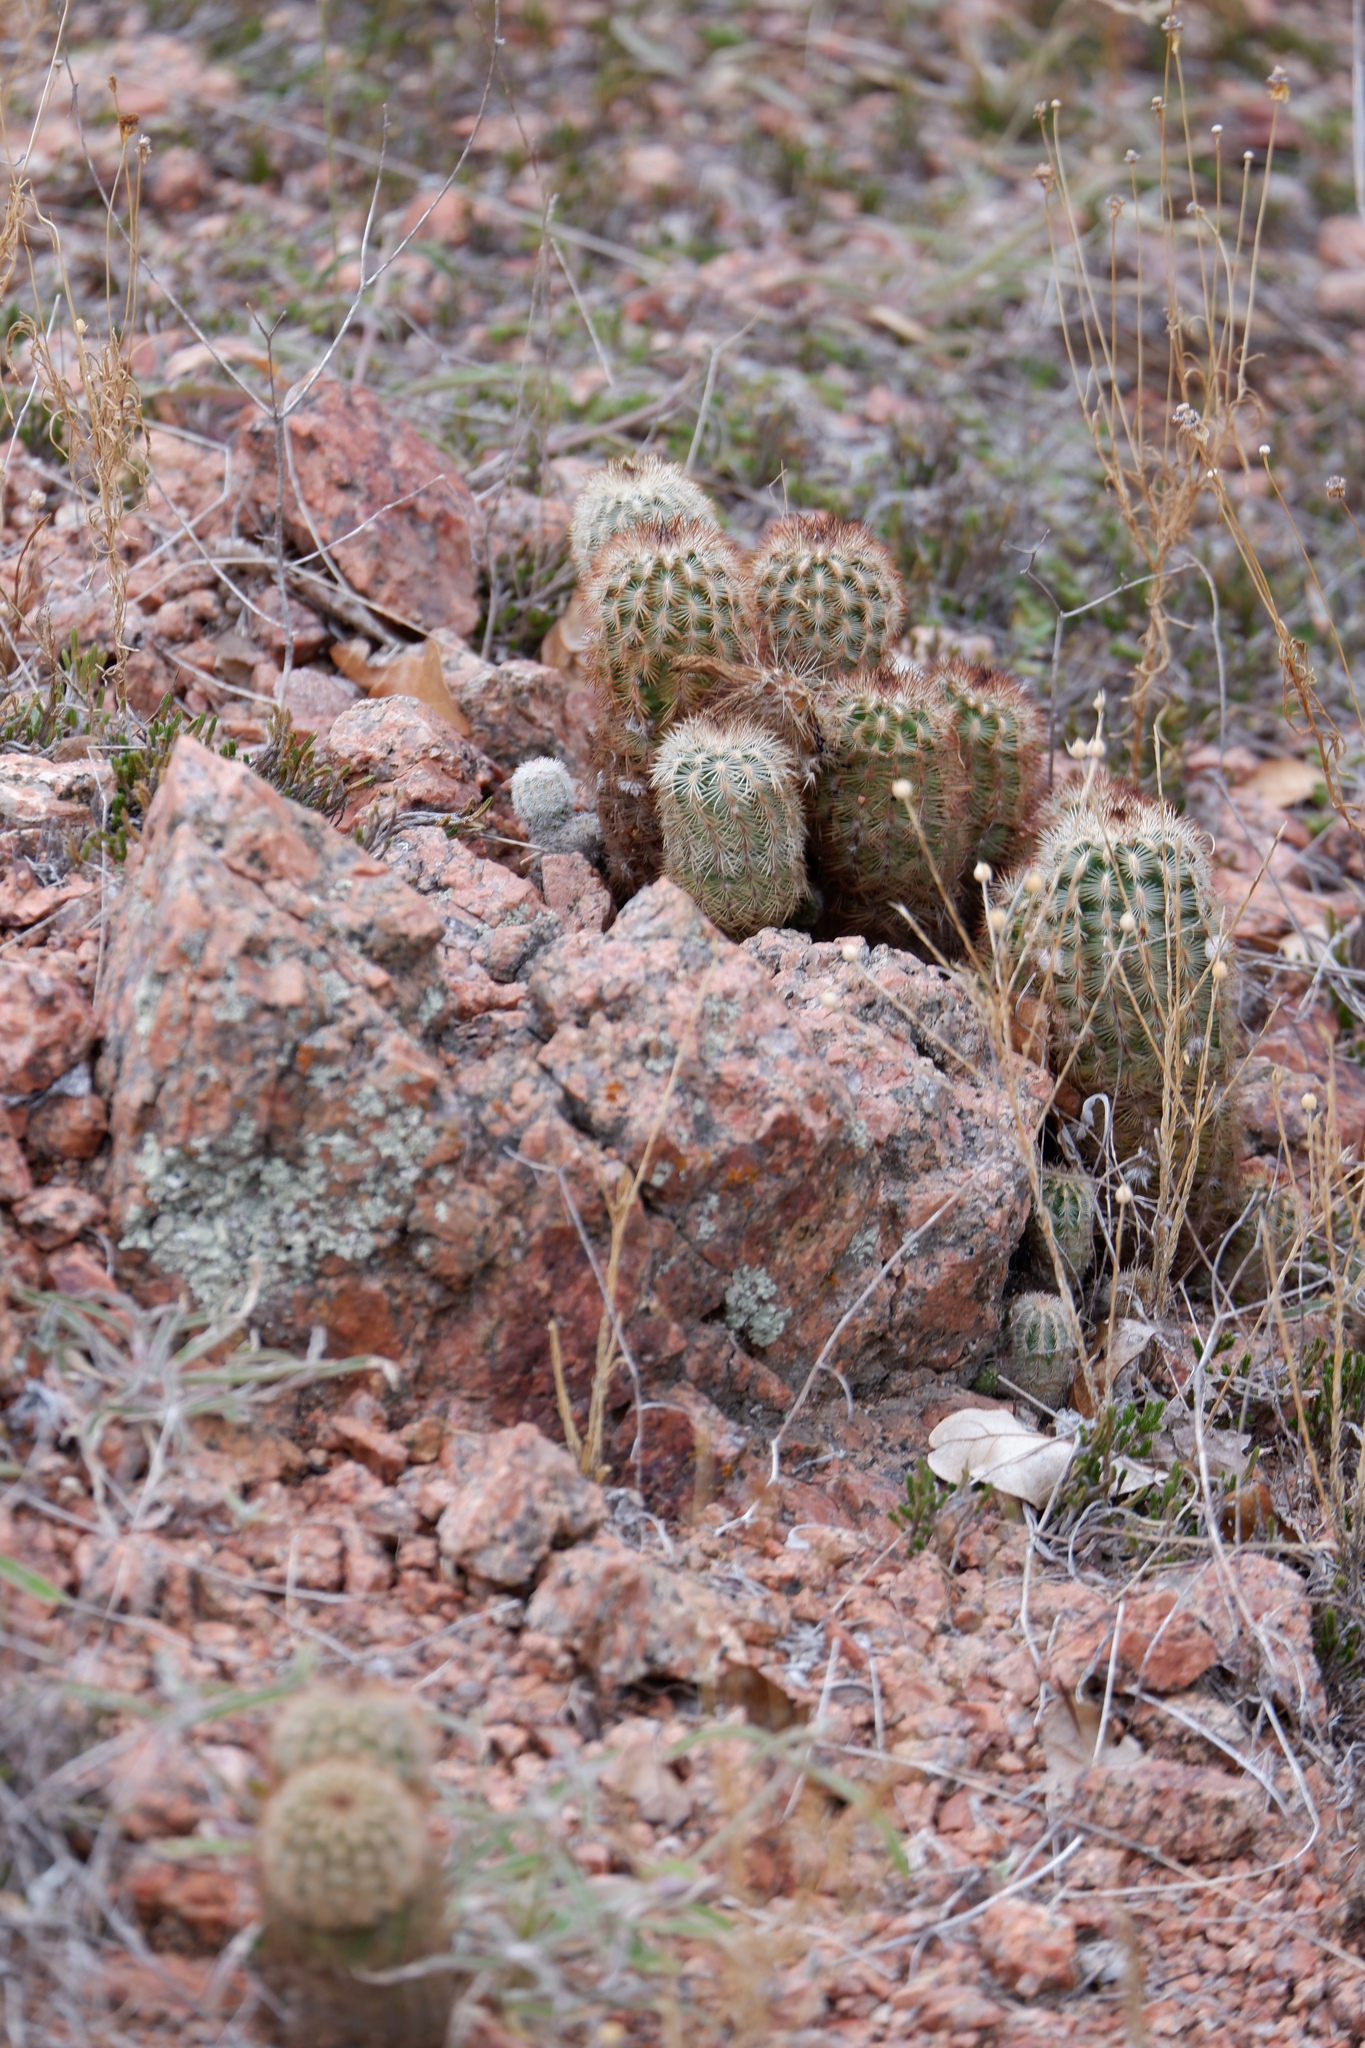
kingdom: Plantae
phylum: Tracheophyta
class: Magnoliopsida
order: Caryophyllales
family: Cactaceae
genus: Echinocereus
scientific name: Echinocereus reichenbachii
